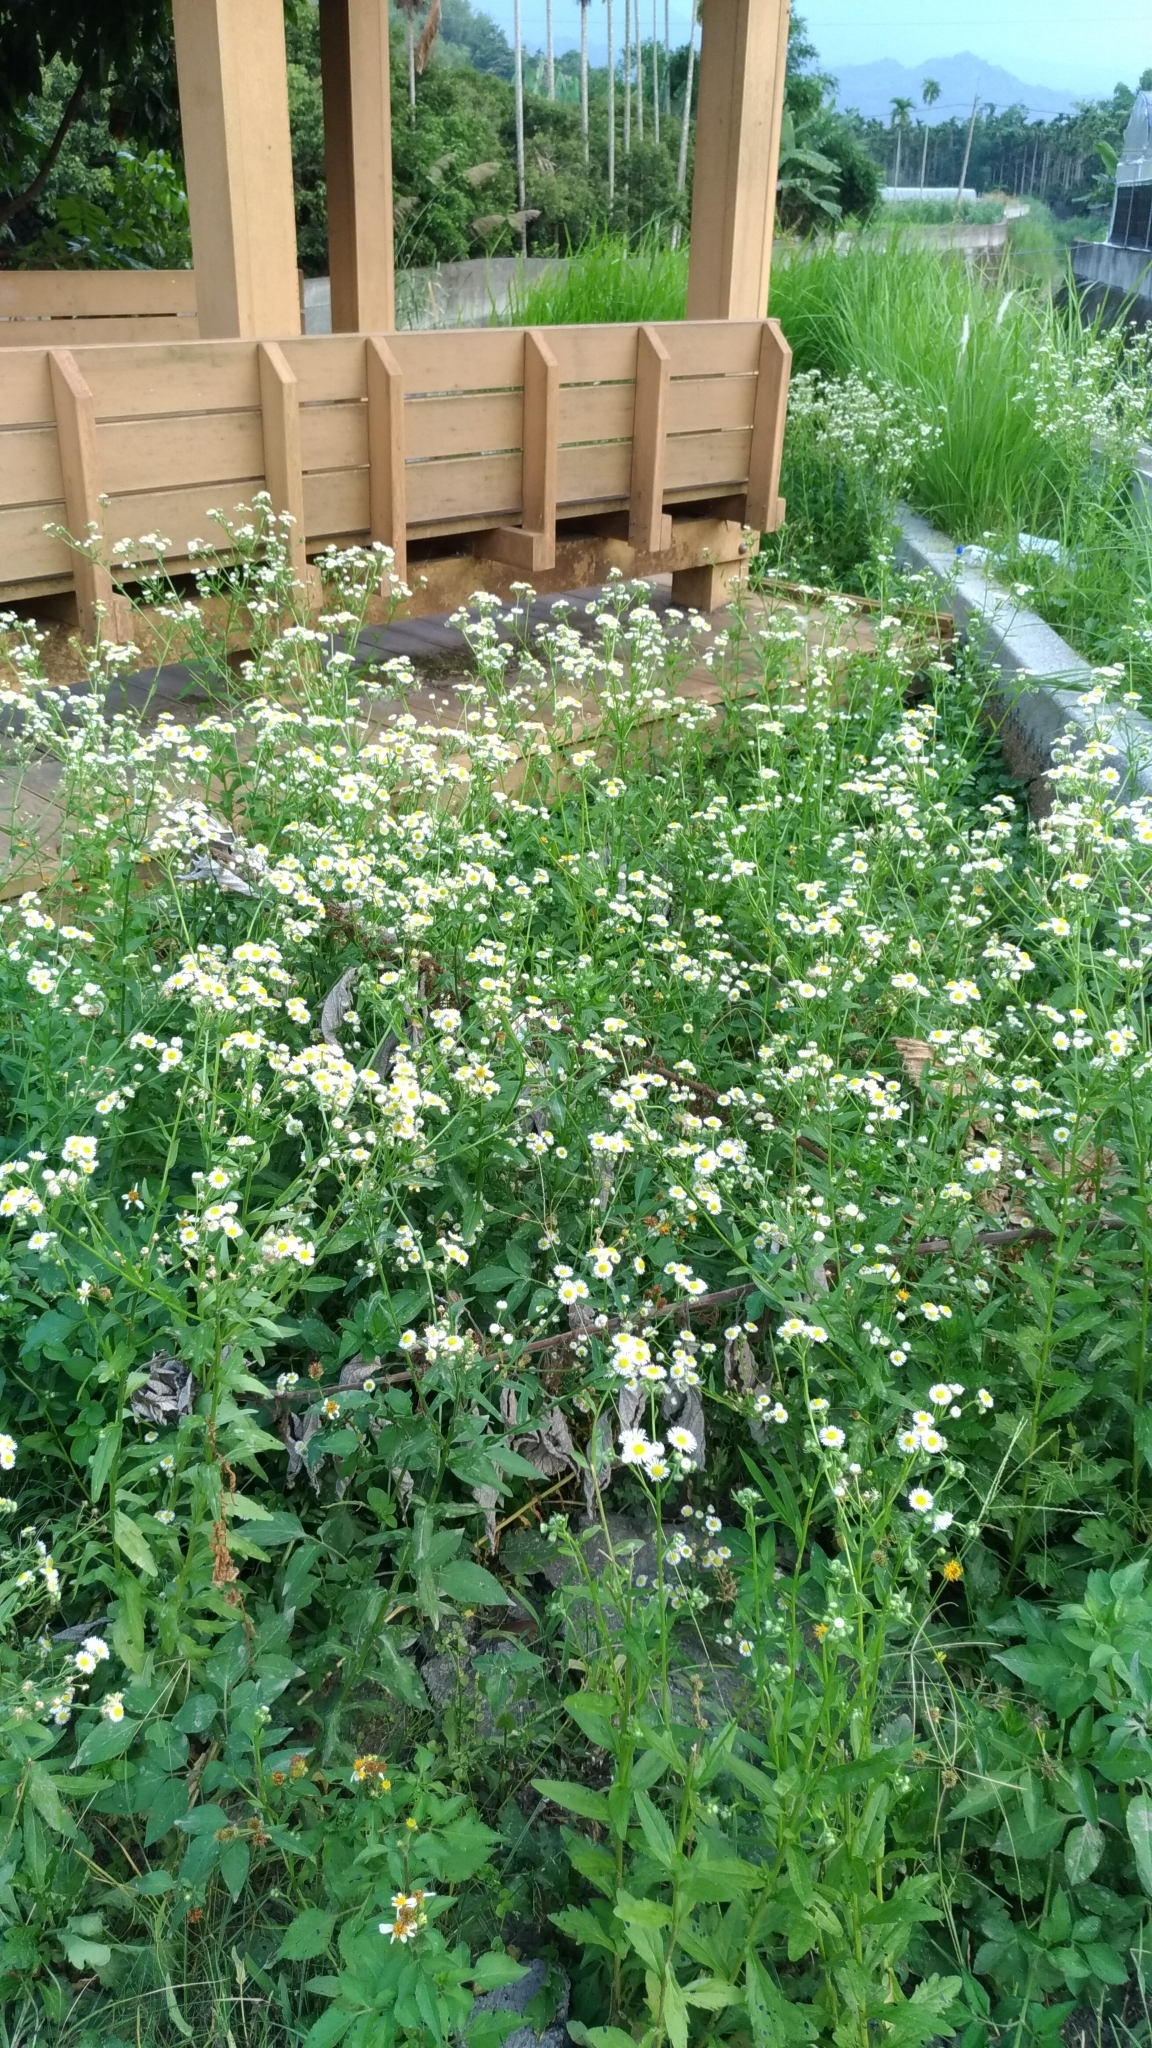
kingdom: Plantae
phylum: Tracheophyta
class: Magnoliopsida
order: Asterales
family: Asteraceae
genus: Erigeron
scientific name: Erigeron annuus
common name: Tall fleabane
